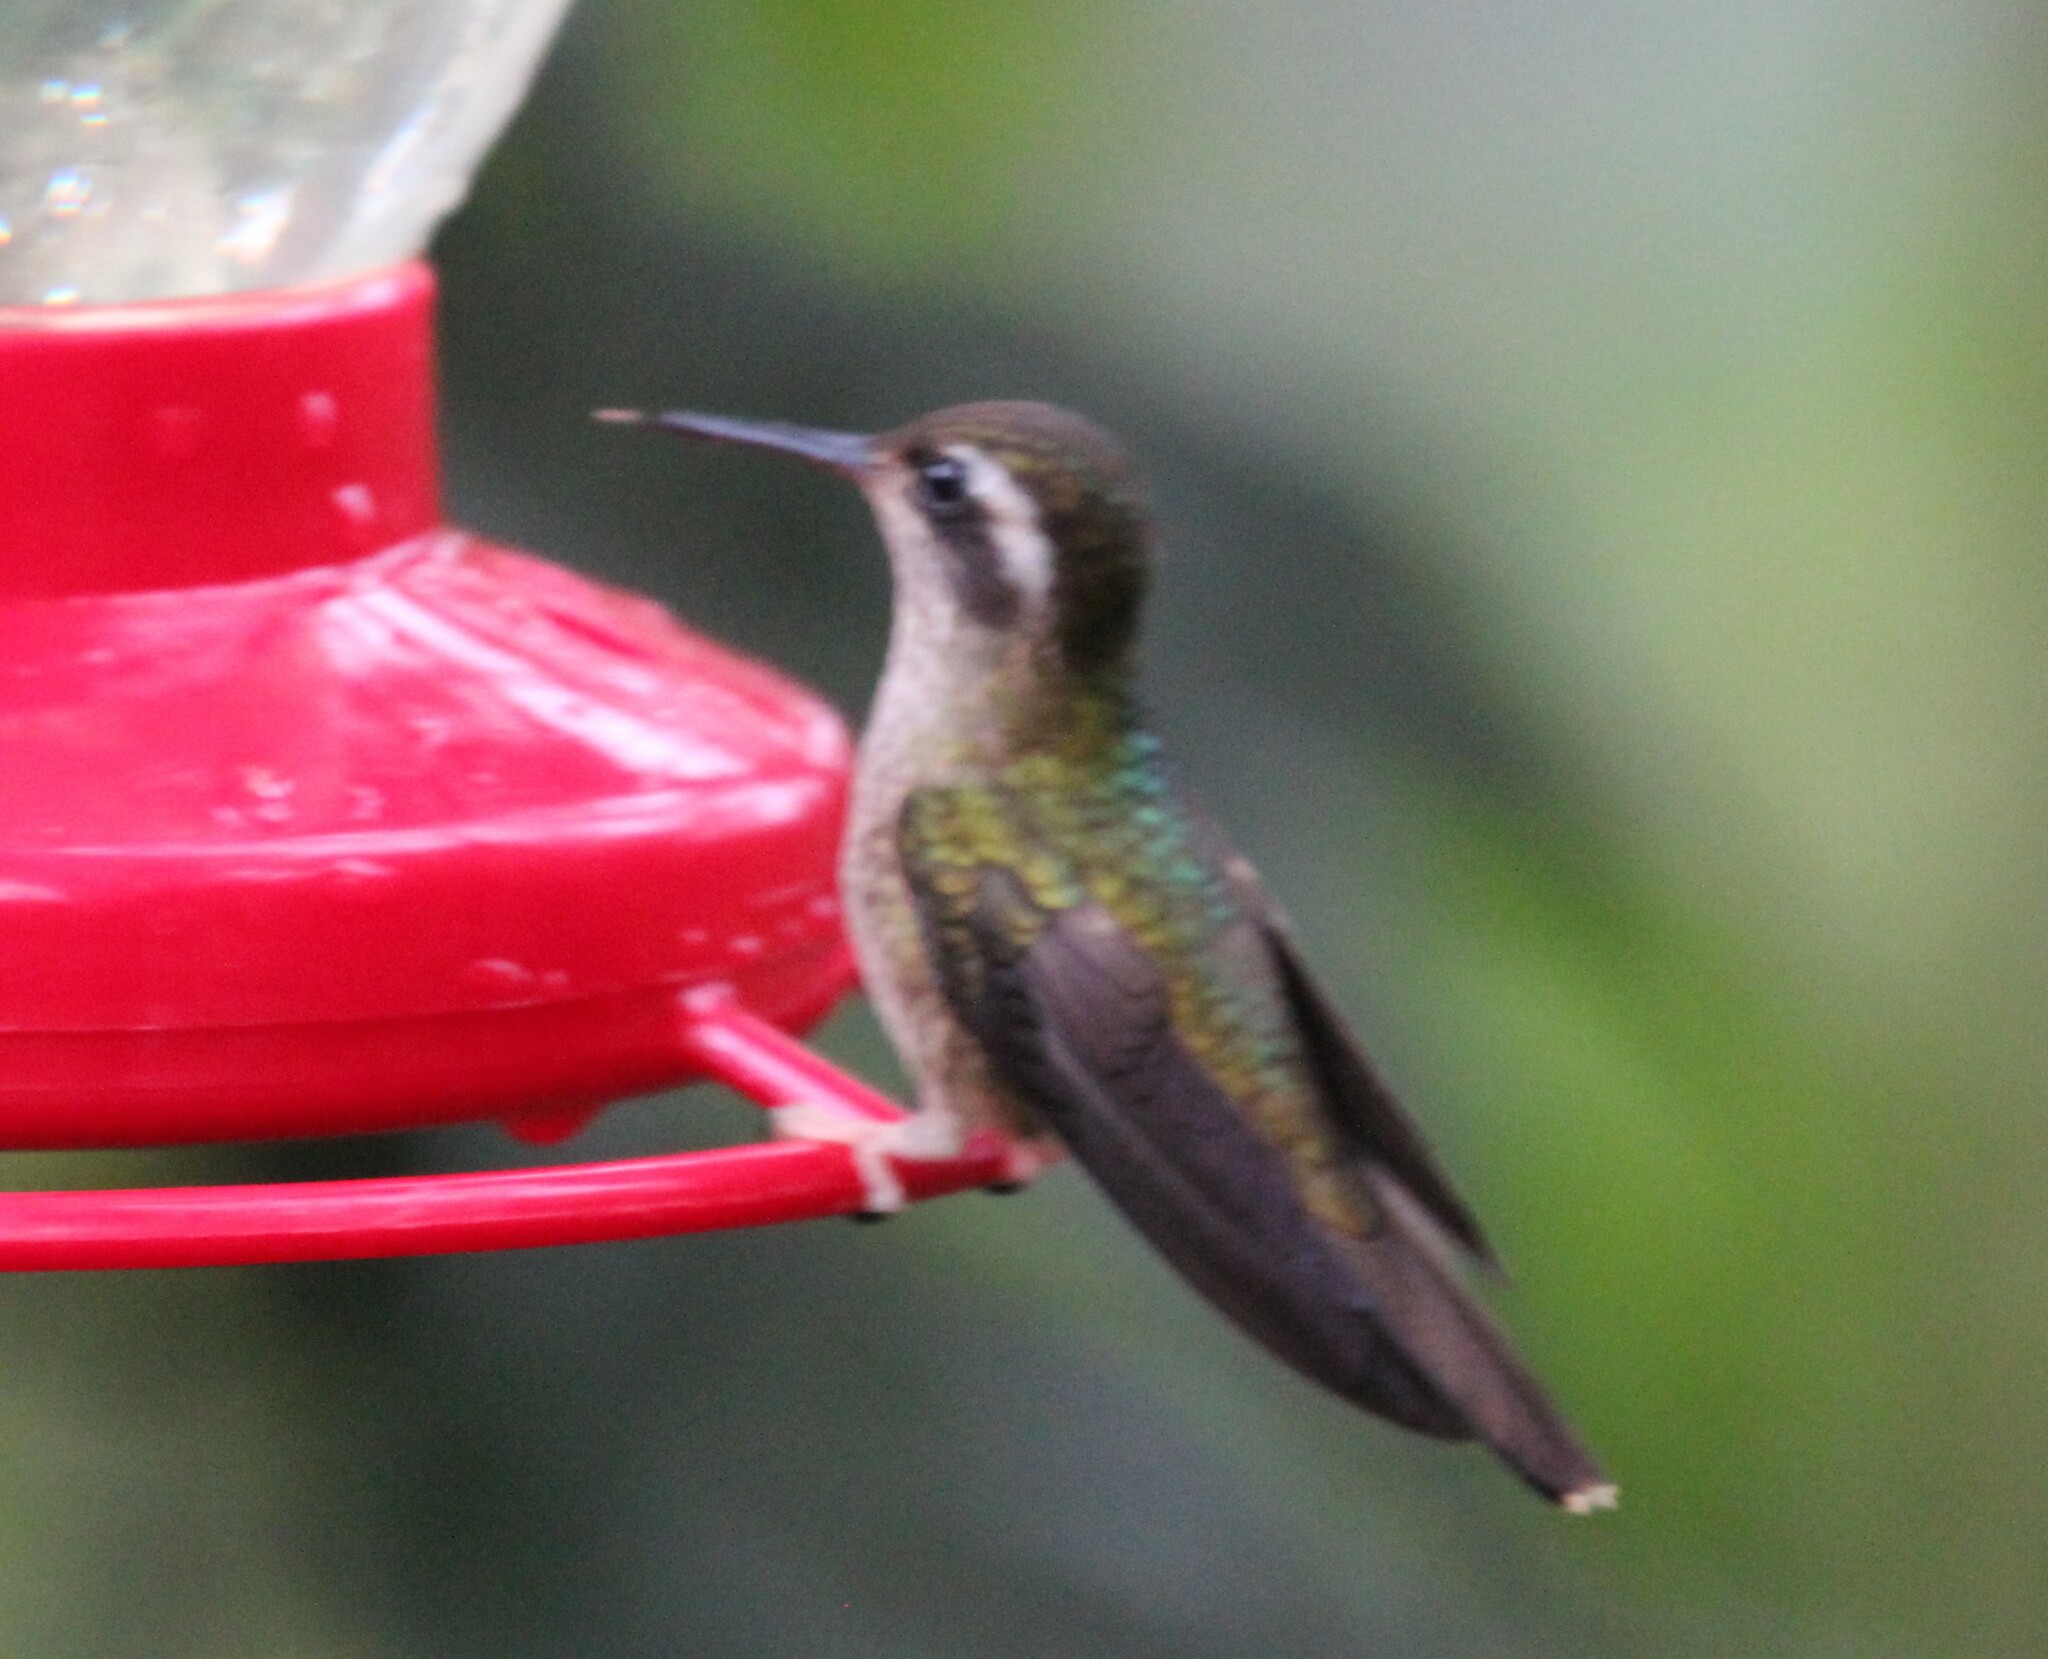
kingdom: Animalia
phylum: Chordata
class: Aves
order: Apodiformes
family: Trochilidae
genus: Adelomyia
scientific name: Adelomyia melanogenys
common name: Speckled hummingbird
